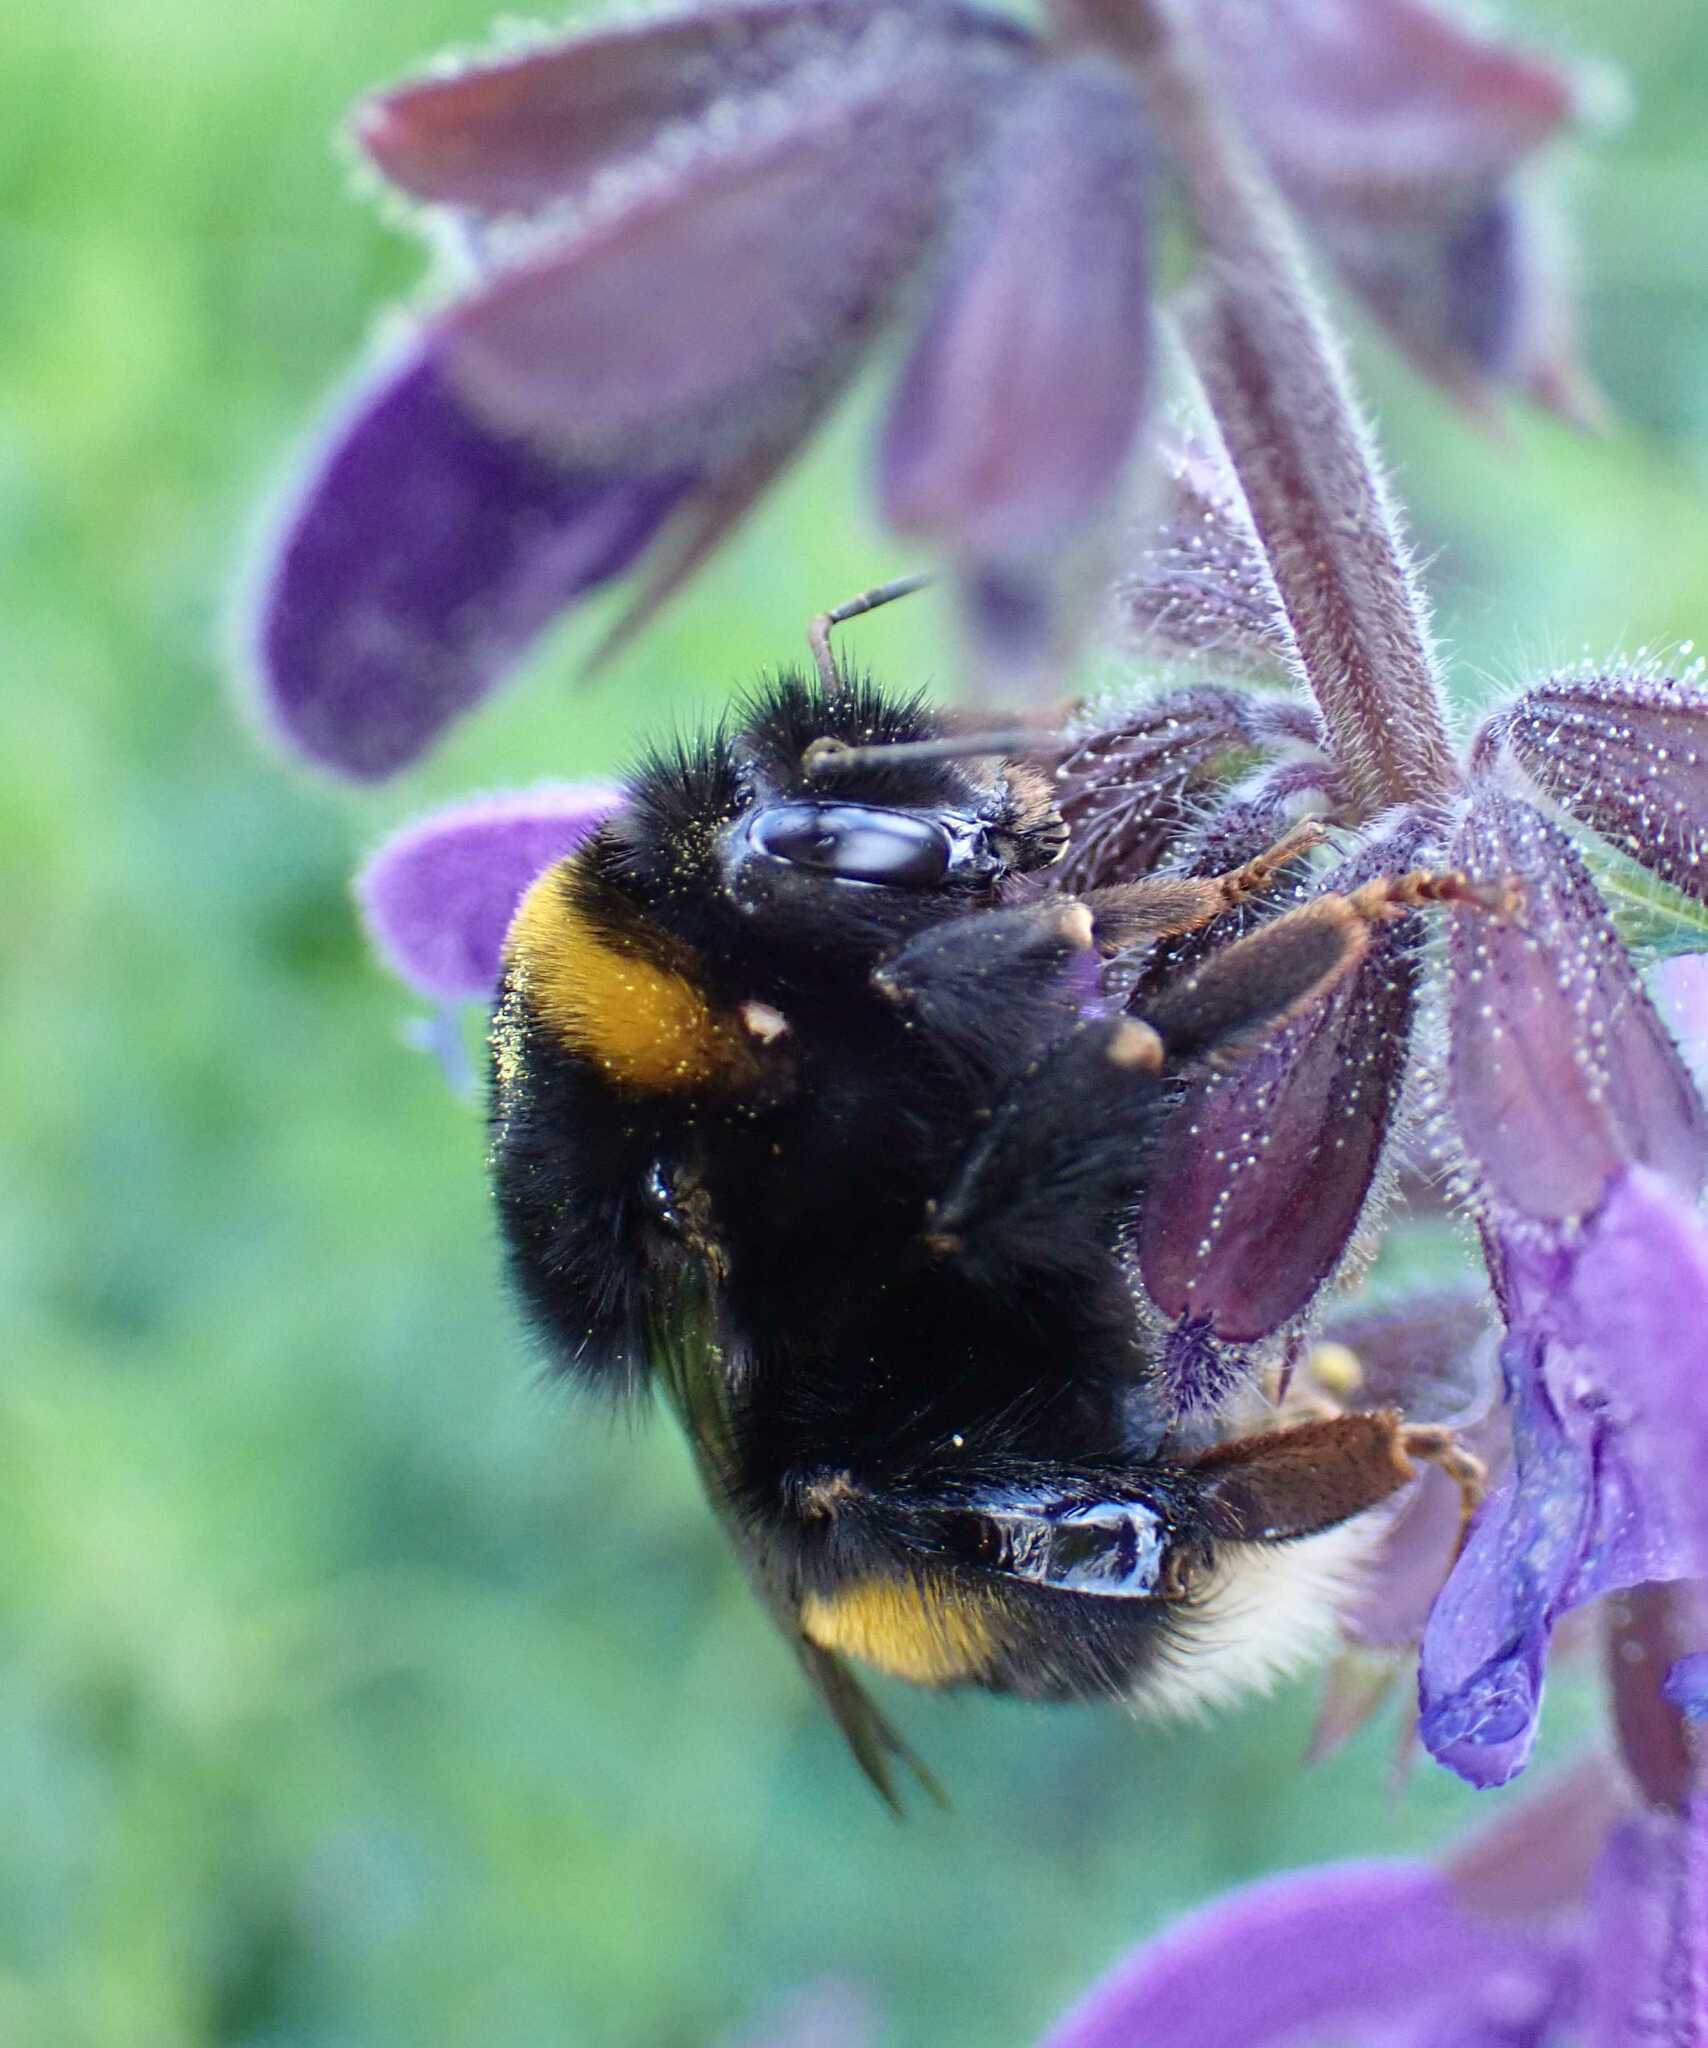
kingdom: Animalia
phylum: Arthropoda
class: Insecta
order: Hymenoptera
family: Apidae
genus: Bombus
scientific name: Bombus
